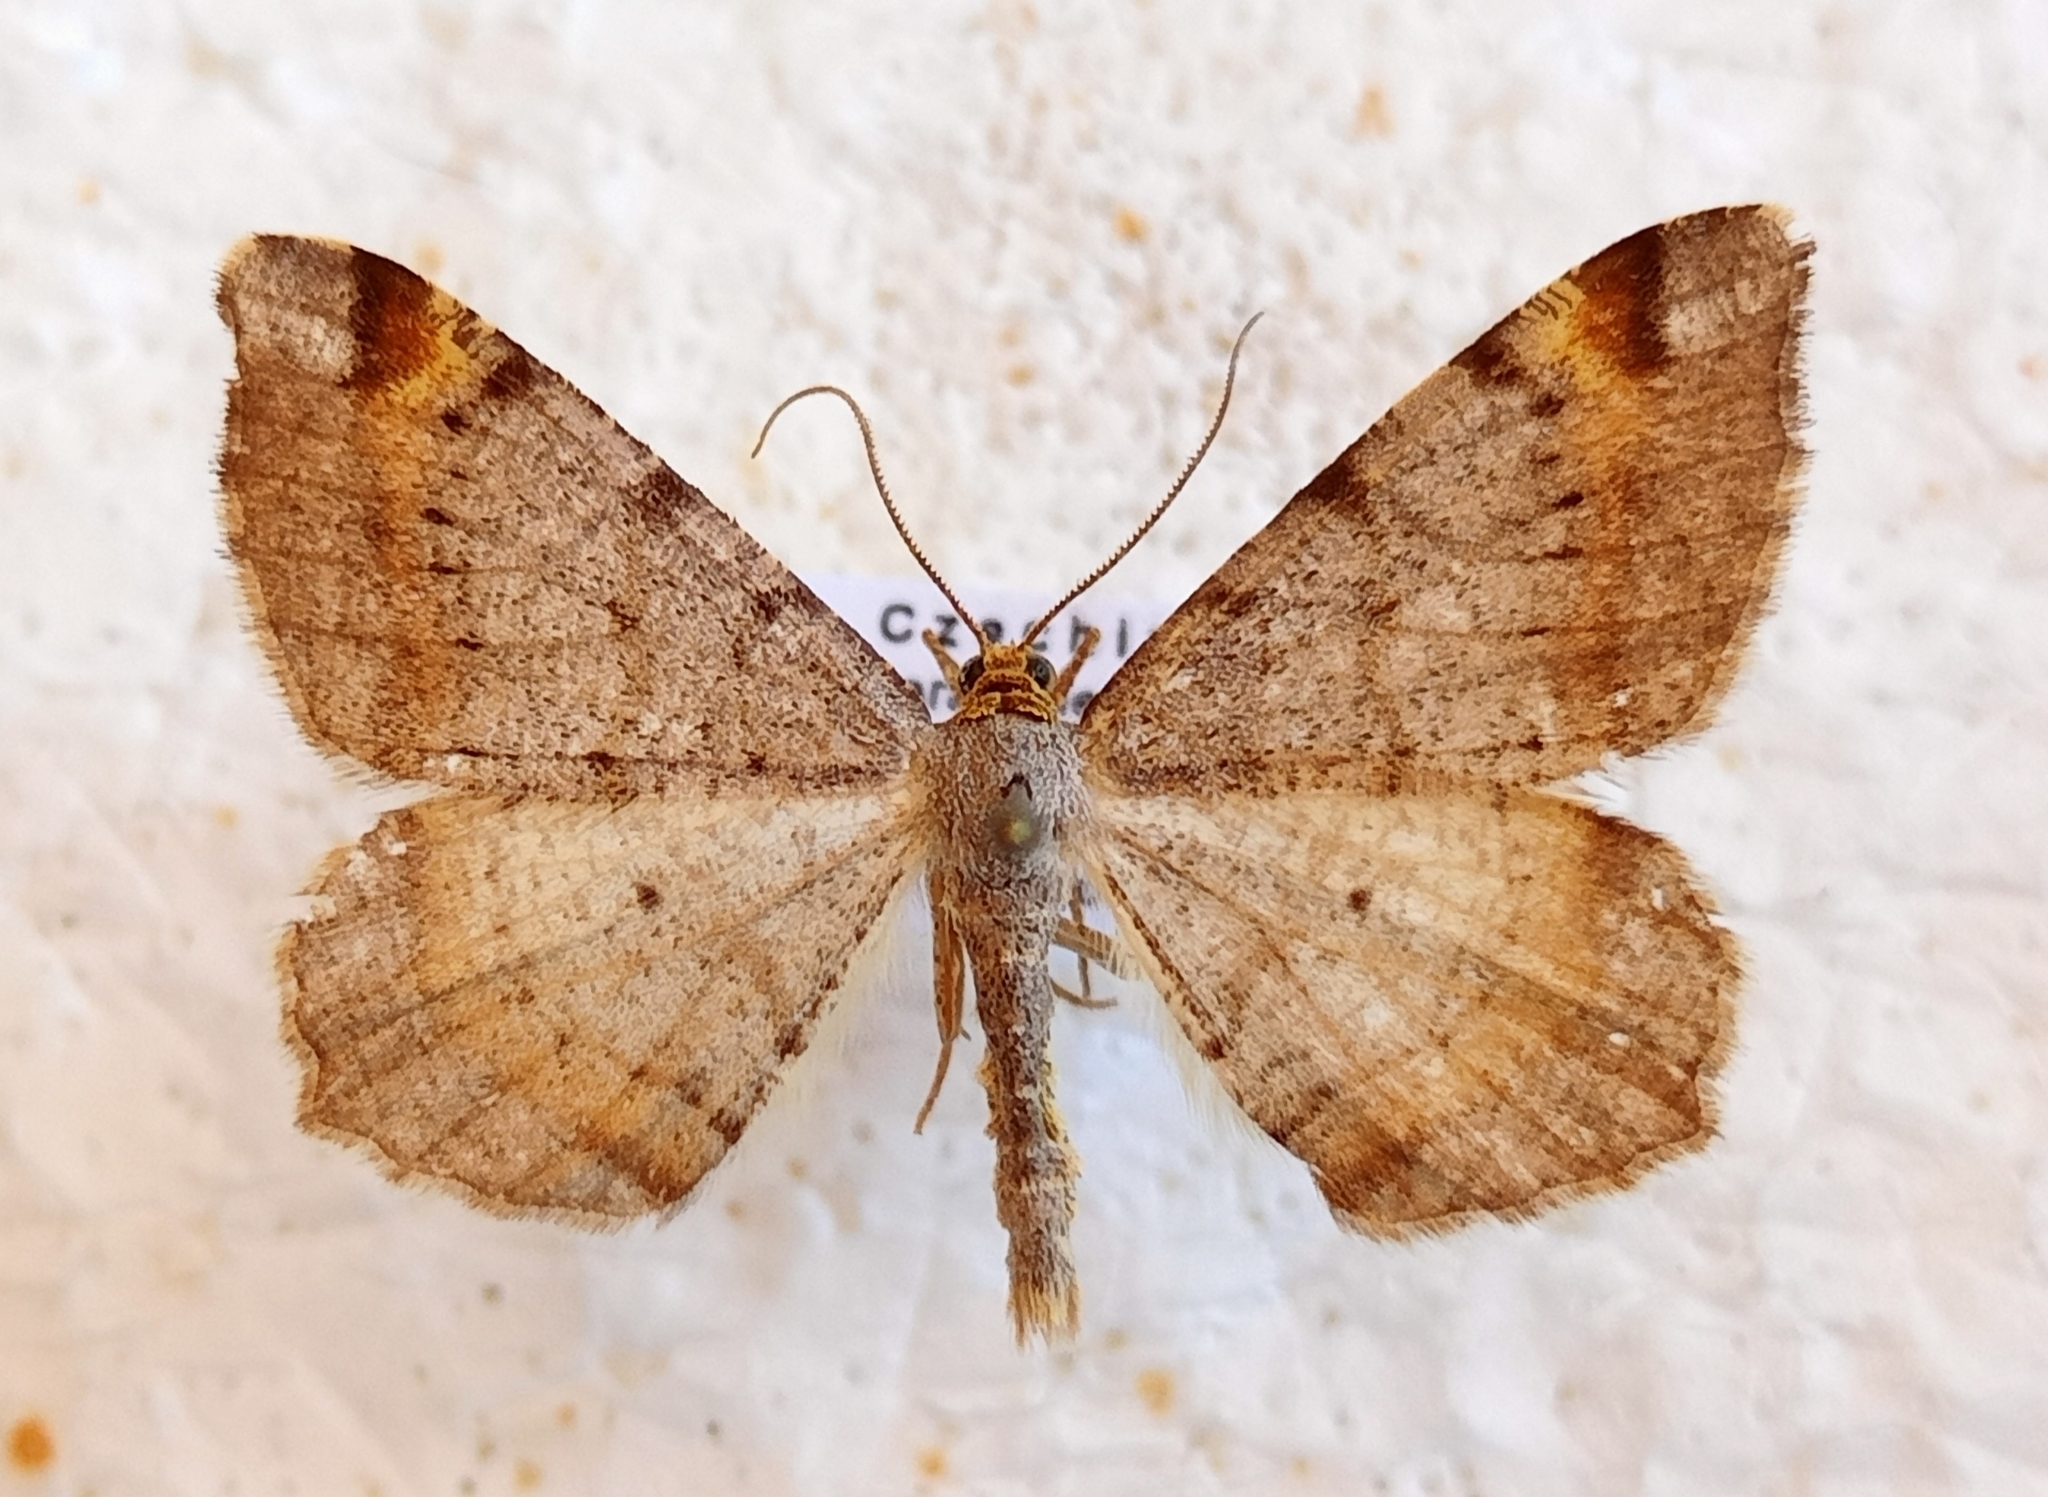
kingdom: Animalia
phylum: Arthropoda
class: Insecta
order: Lepidoptera
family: Geometridae
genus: Macaria
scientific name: Macaria liturata
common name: Tawny-barred angle
